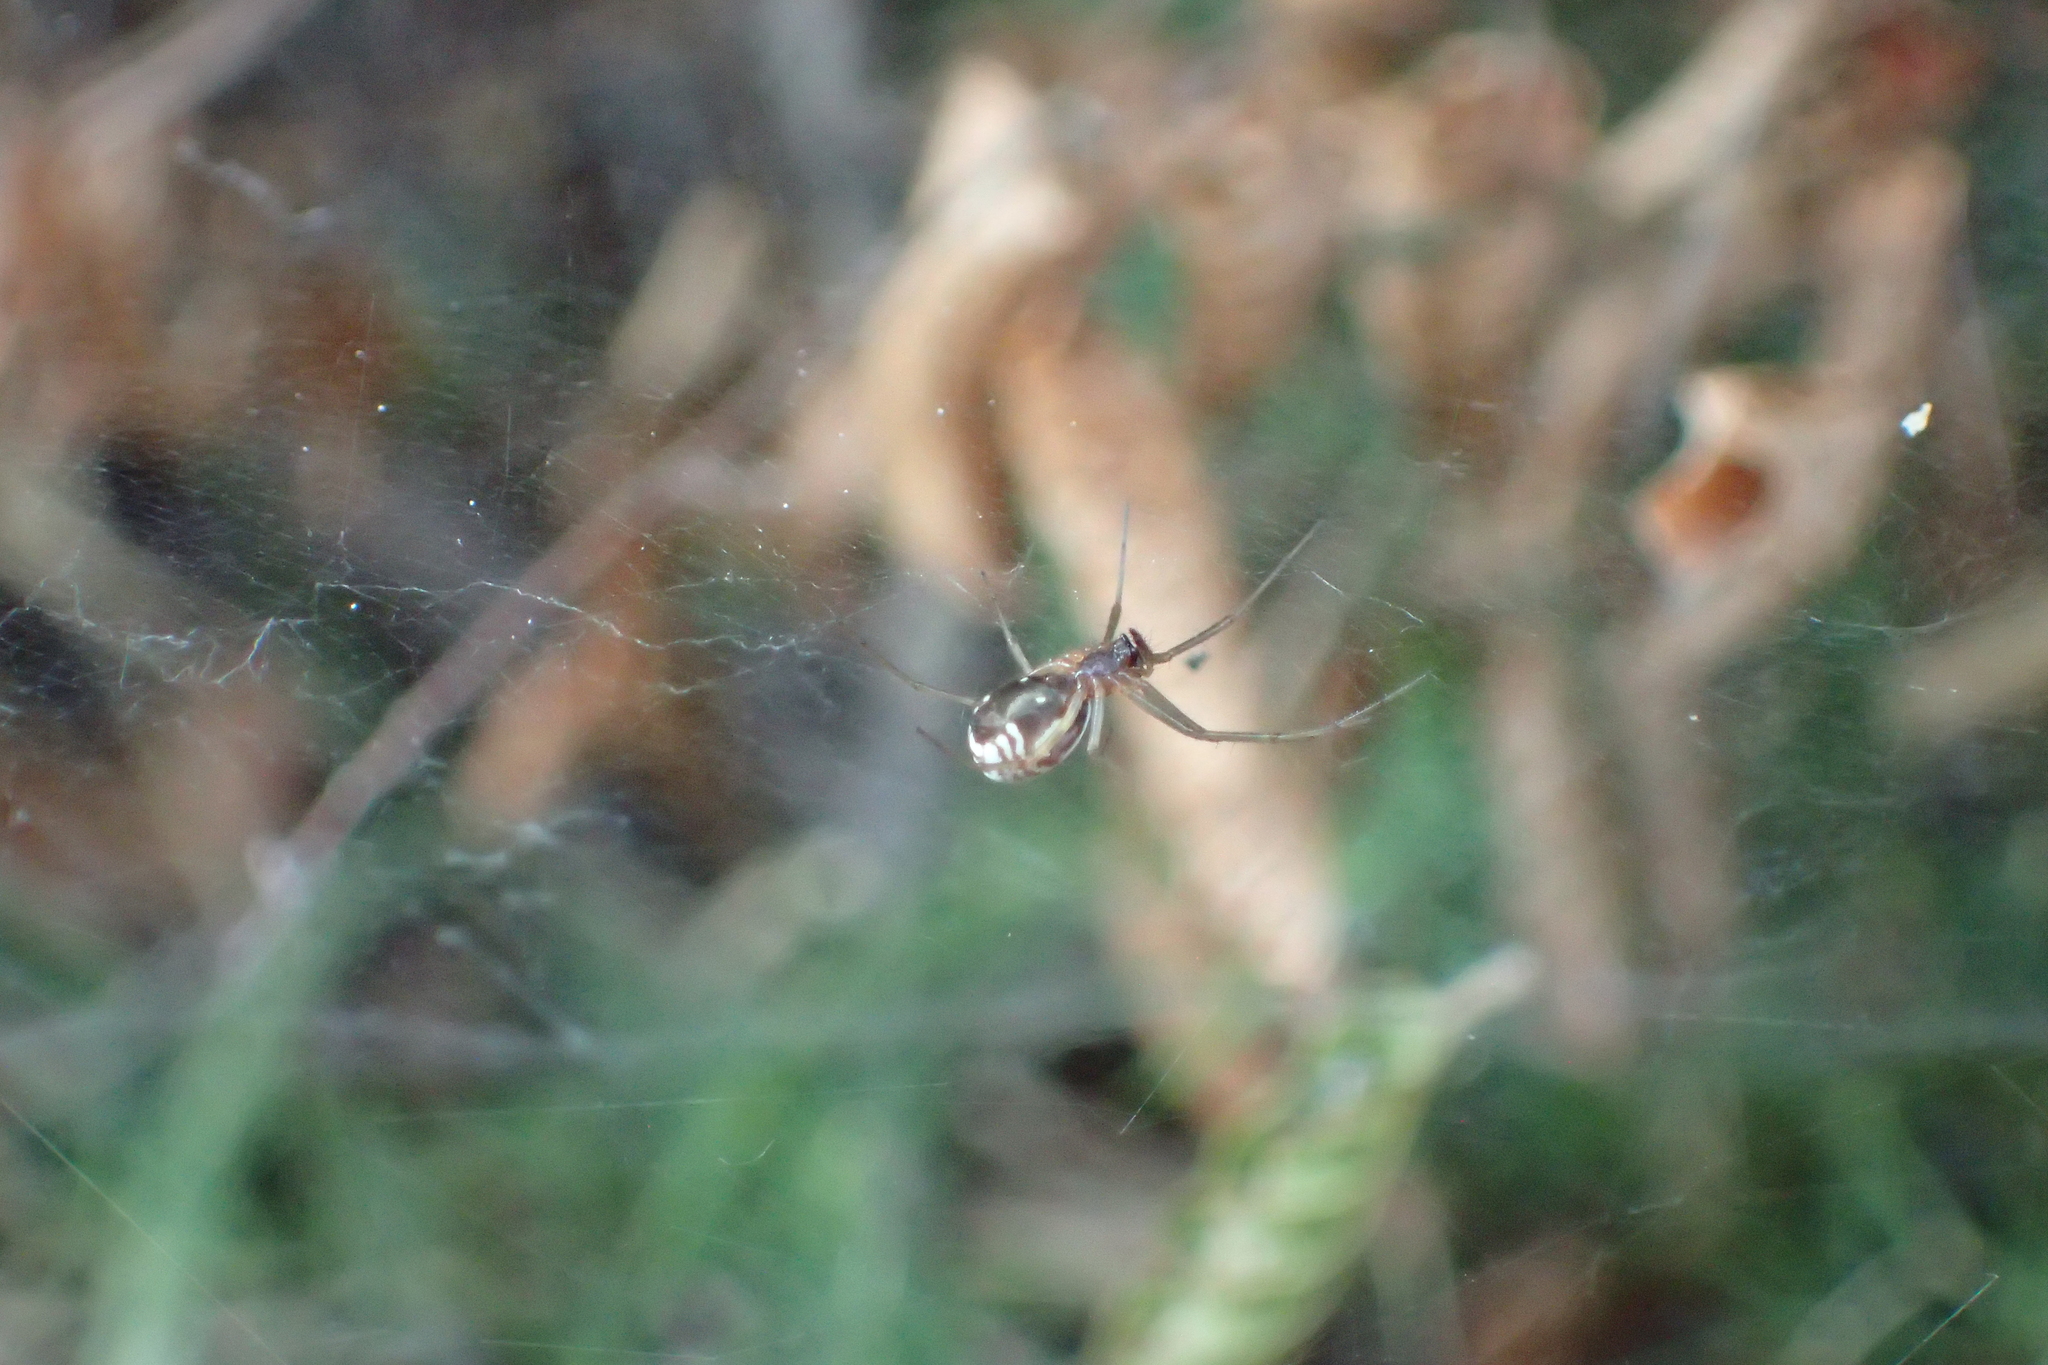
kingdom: Animalia
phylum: Arthropoda
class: Arachnida
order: Araneae
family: Linyphiidae
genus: Frontinellina
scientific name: Frontinellina frutetorum
